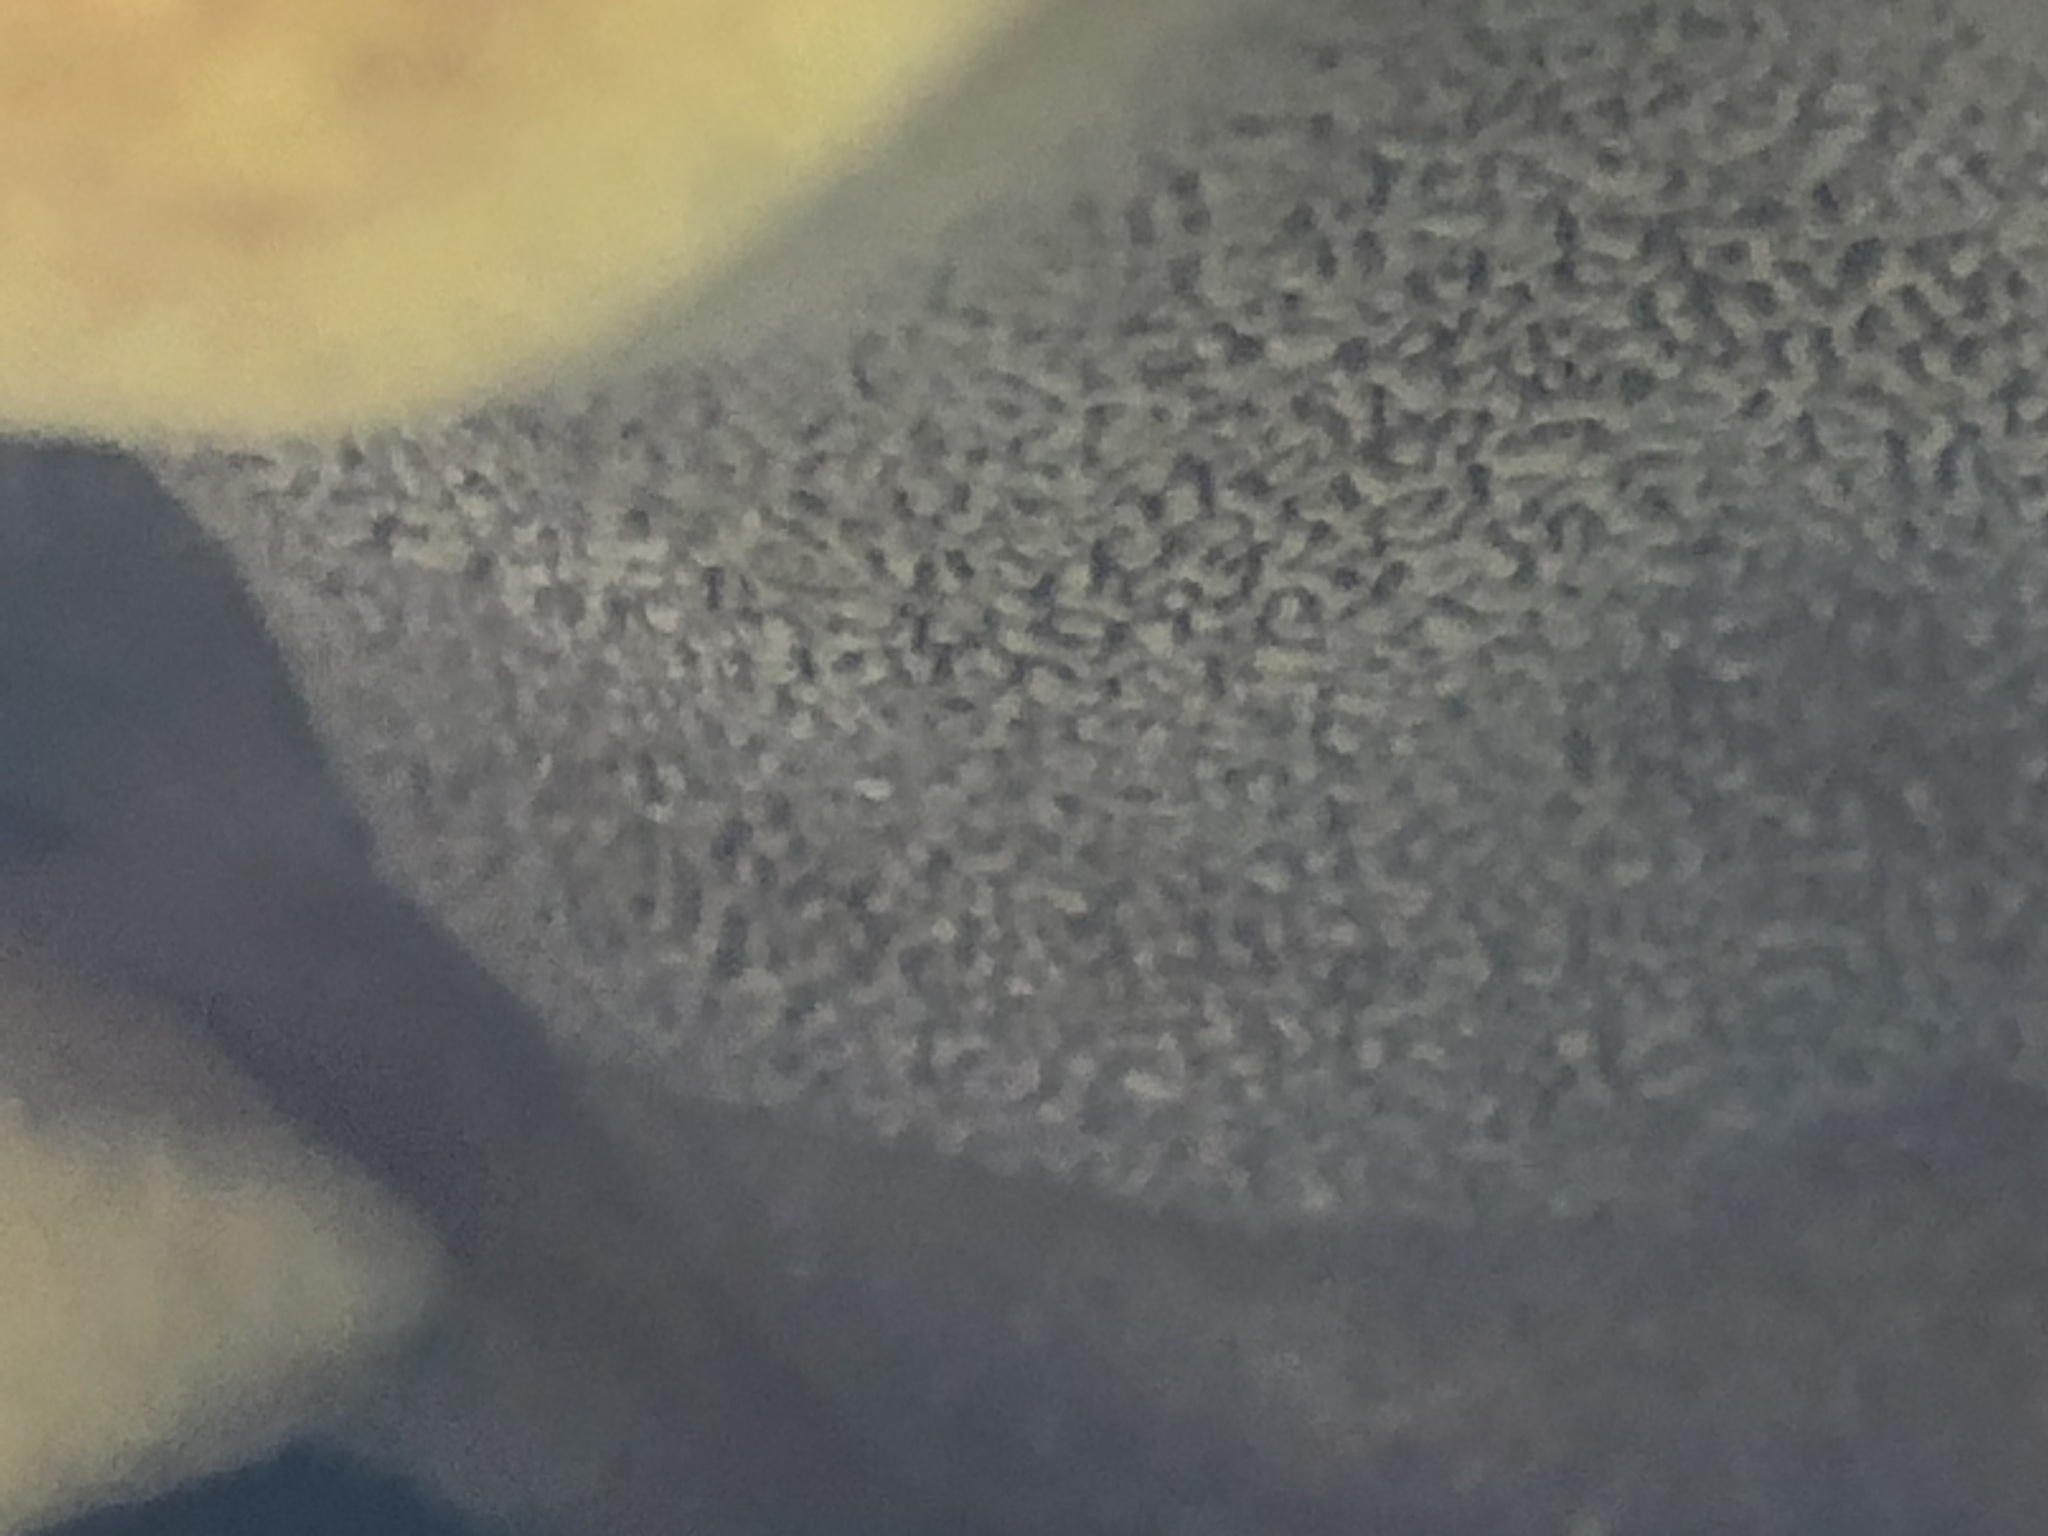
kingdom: Fungi
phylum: Basidiomycota
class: Agaricomycetes
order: Polyporales
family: Laetiporaceae
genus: Phaeolus
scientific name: Phaeolus schweinitzii
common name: Dyer's mazegill
